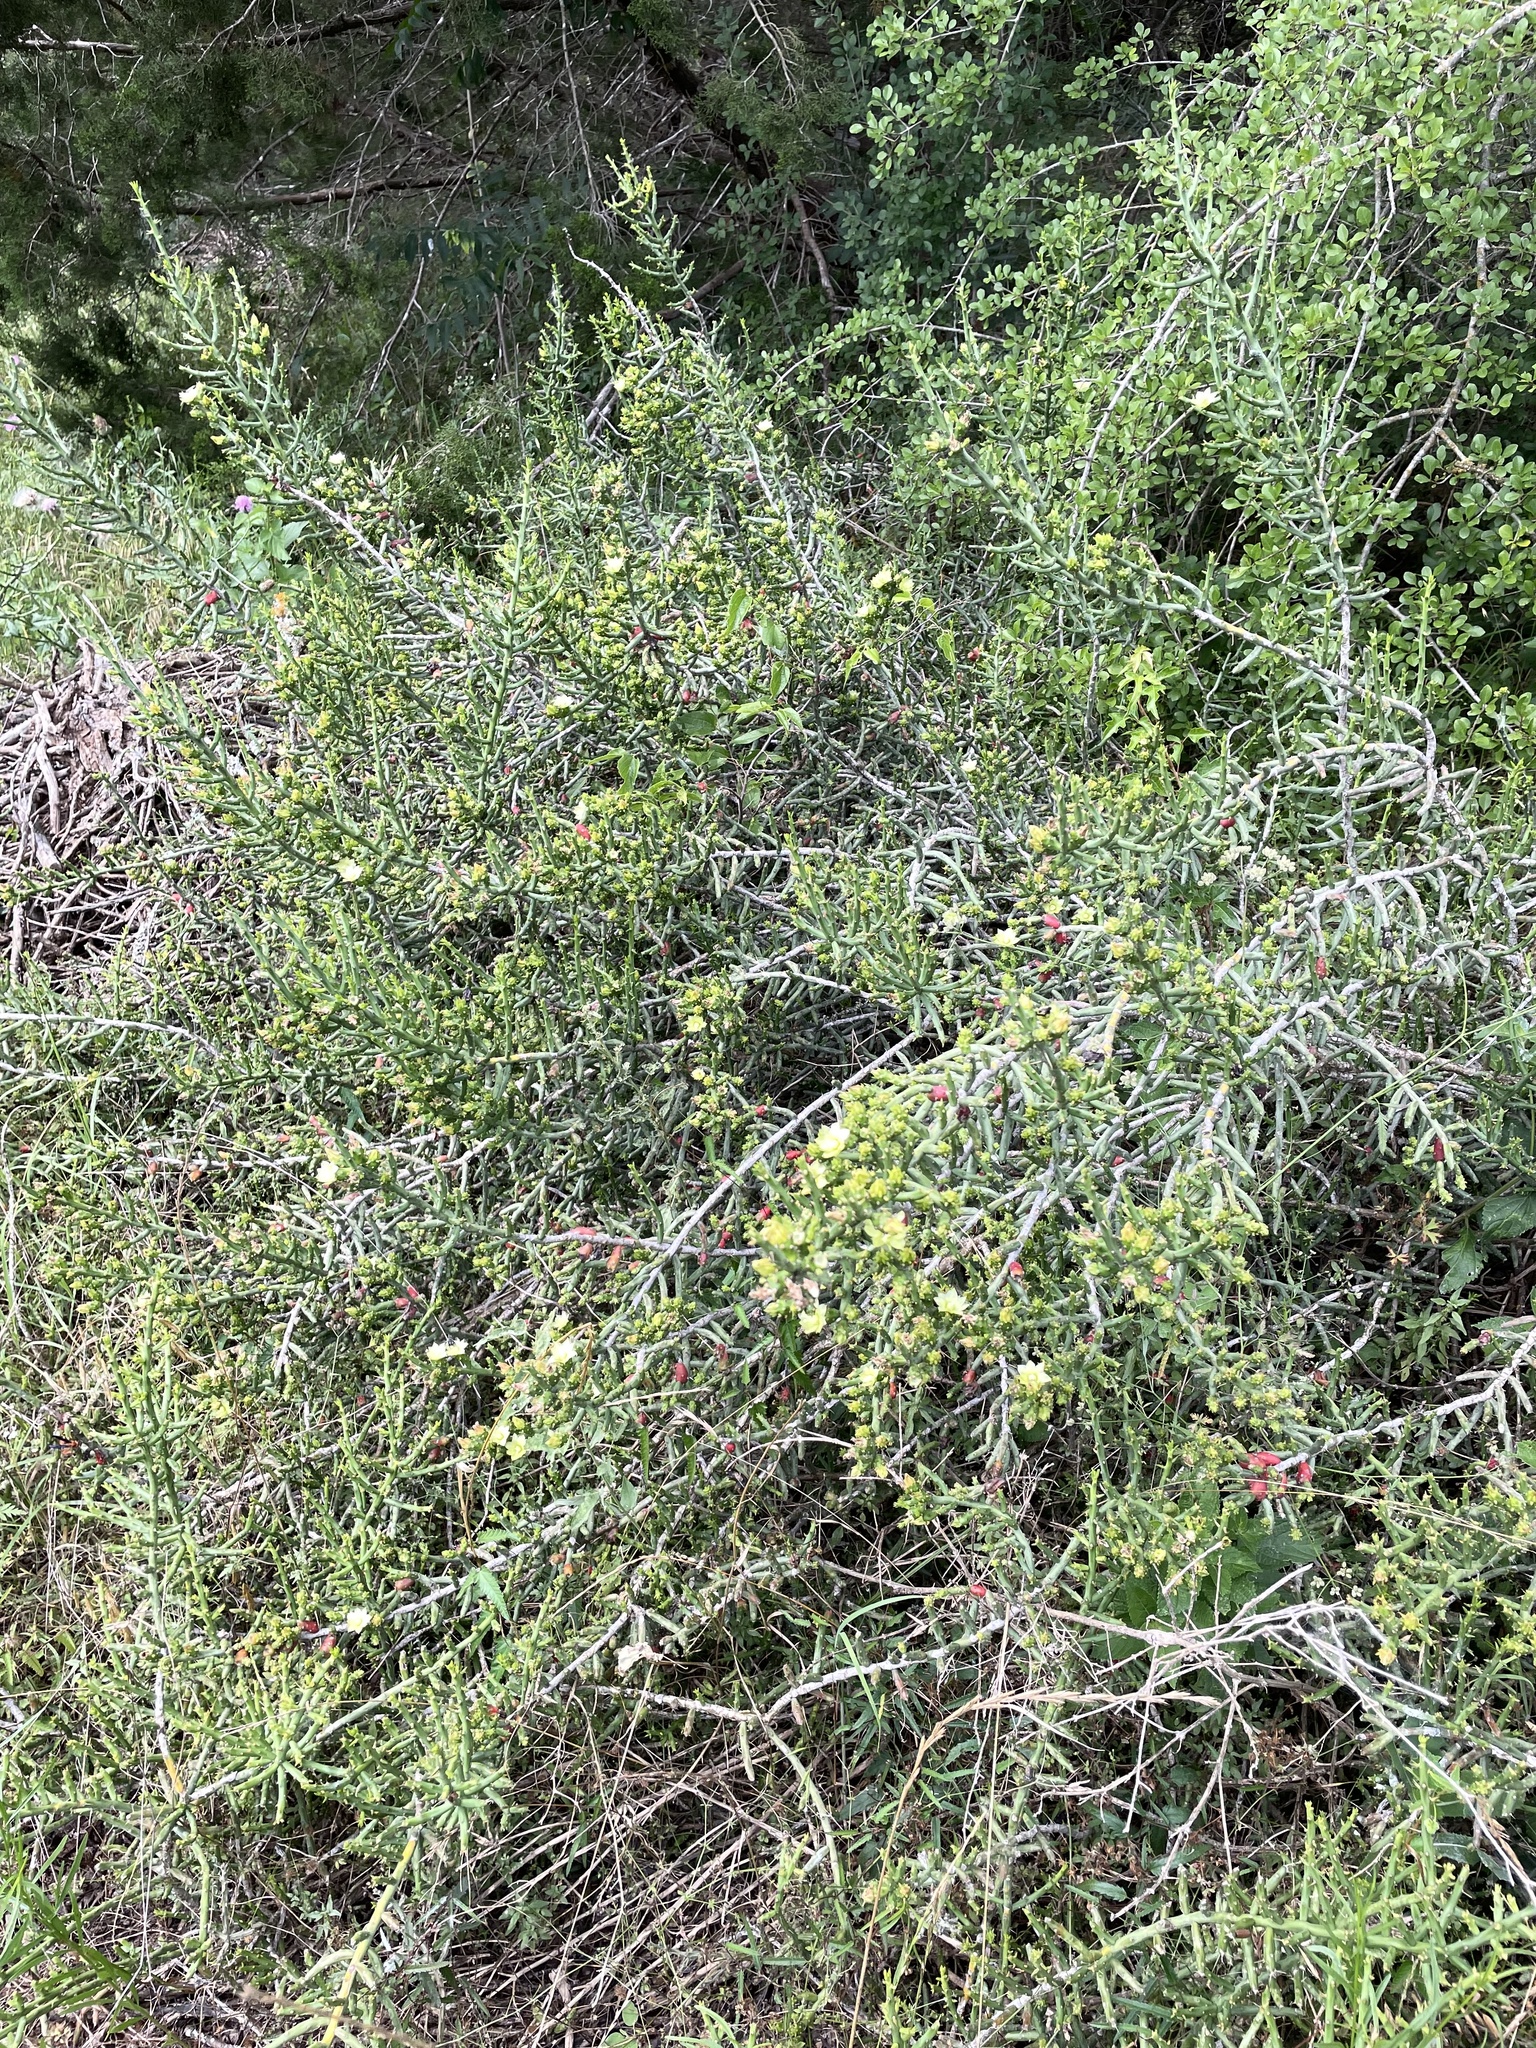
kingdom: Plantae
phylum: Tracheophyta
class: Magnoliopsida
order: Caryophyllales
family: Cactaceae
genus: Cylindropuntia
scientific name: Cylindropuntia leptocaulis
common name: Christmas cactus
